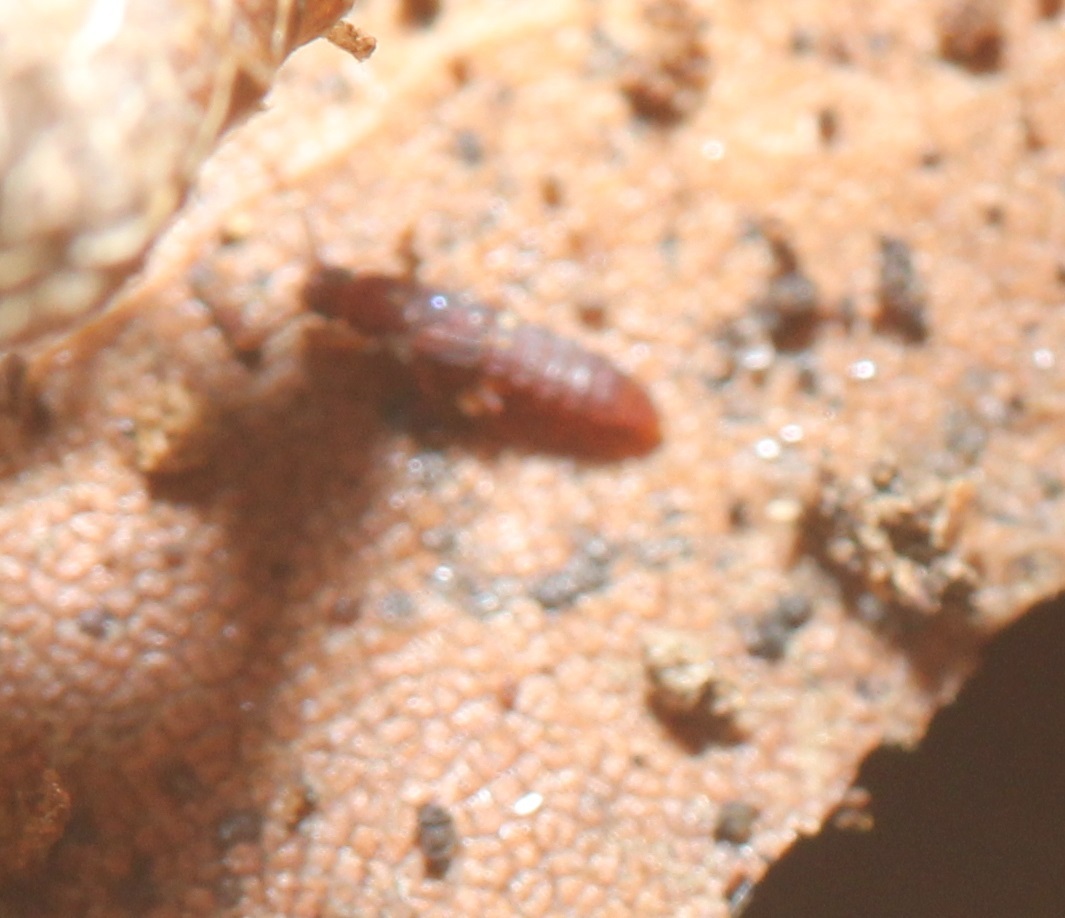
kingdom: Animalia
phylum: Arthropoda
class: Insecta
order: Coleoptera
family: Staphylinidae
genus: Thoracophorus
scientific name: Thoracophorus costalis
